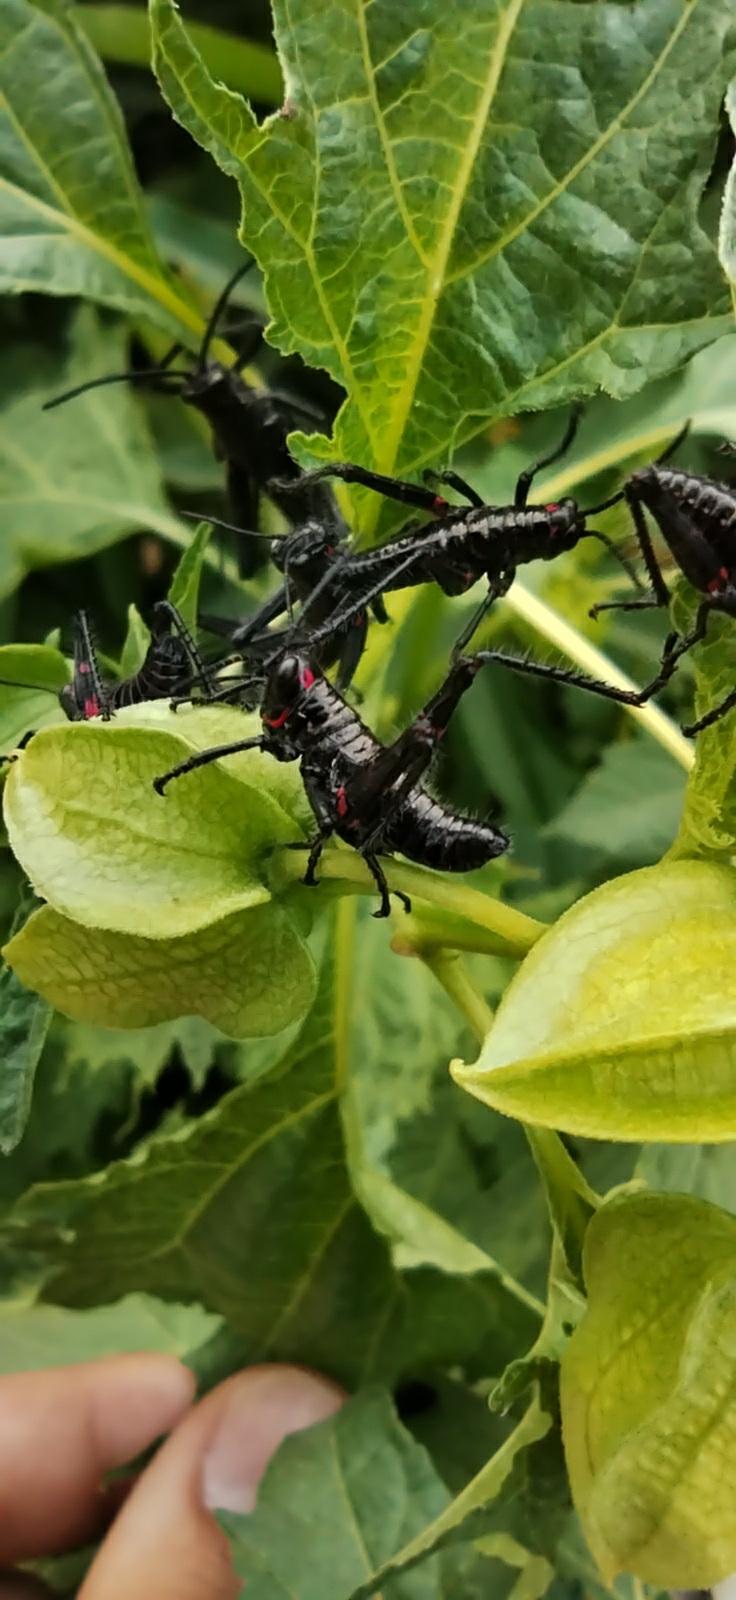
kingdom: Animalia
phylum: Arthropoda
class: Insecta
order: Orthoptera
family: Romaleidae
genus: Chromacris
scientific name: Chromacris speciosa
